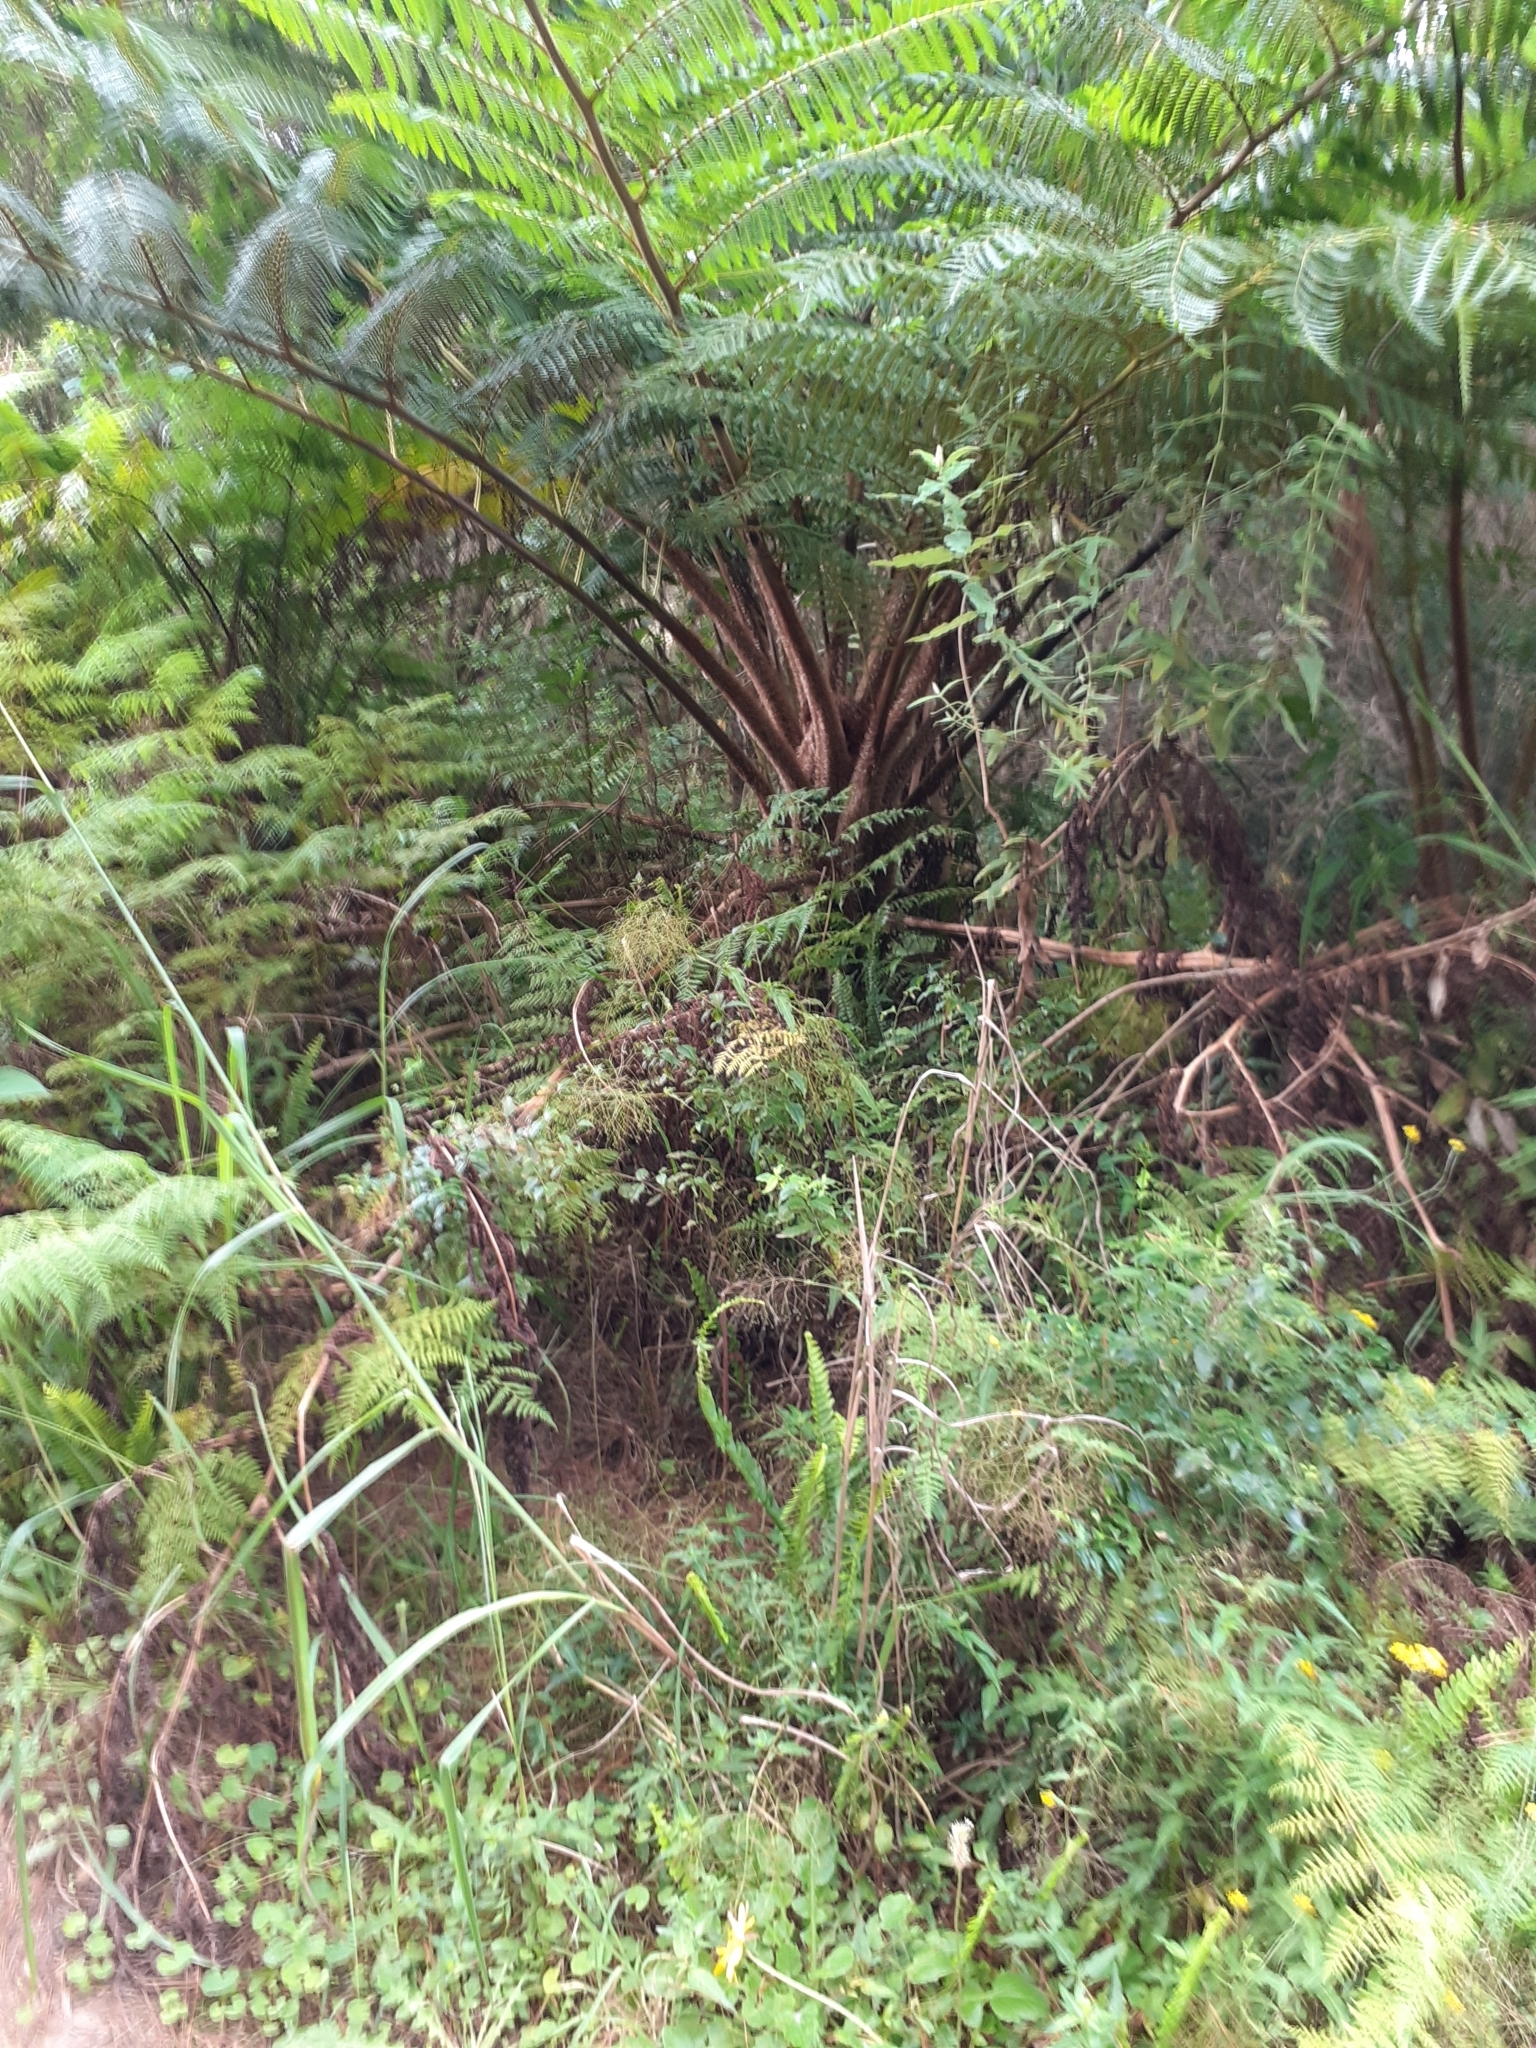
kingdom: Plantae
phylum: Tracheophyta
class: Polypodiopsida
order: Cyatheales
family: Cyatheaceae
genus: Sphaeropteris
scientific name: Sphaeropteris cooperi
